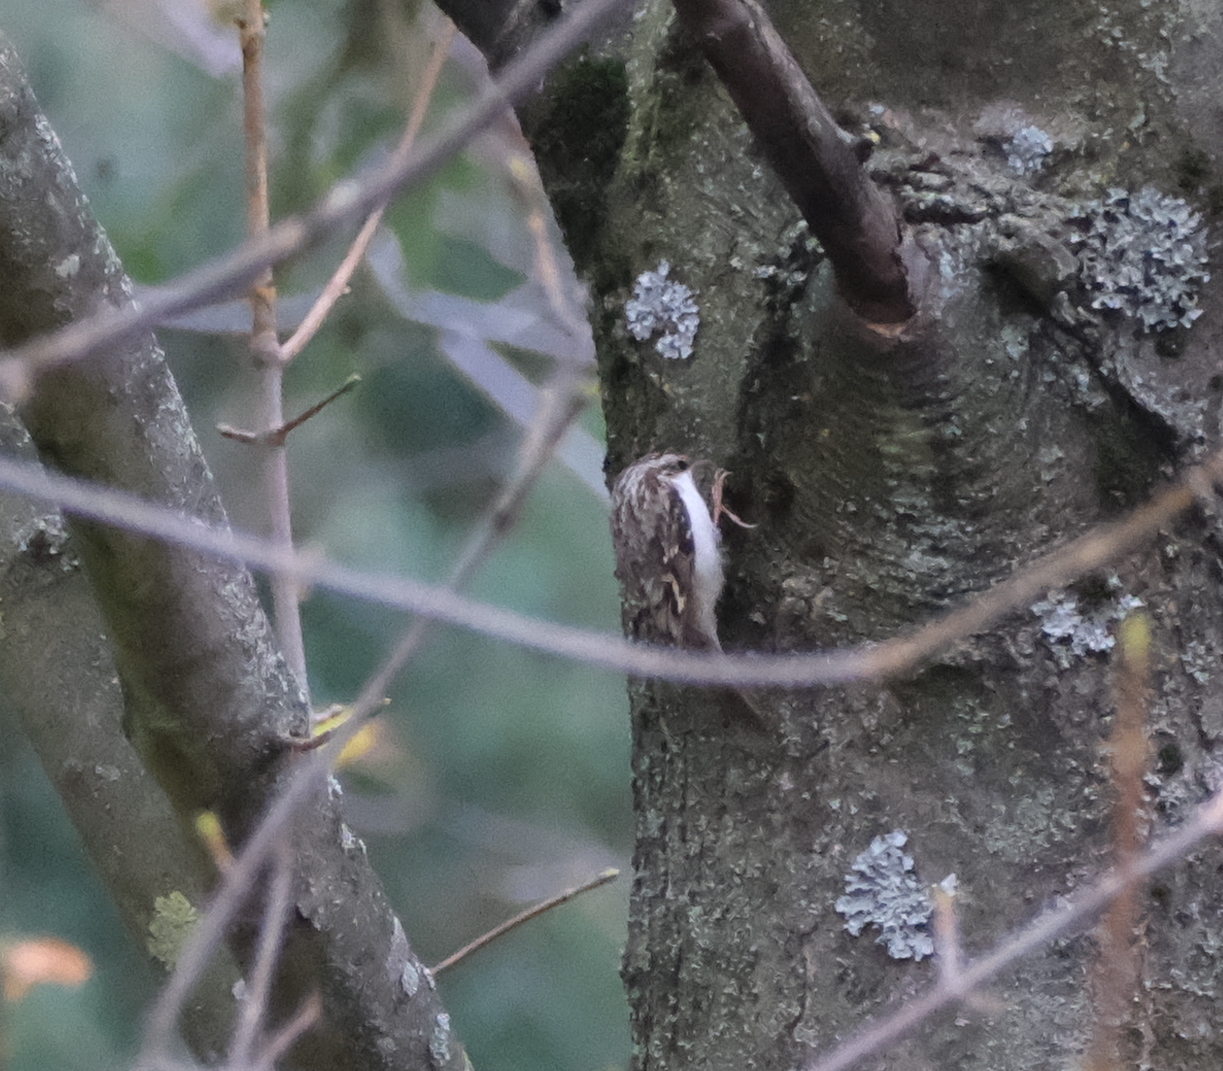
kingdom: Animalia
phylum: Chordata
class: Aves
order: Passeriformes
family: Certhiidae
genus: Certhia
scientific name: Certhia familiaris
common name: Eurasian treecreeper
